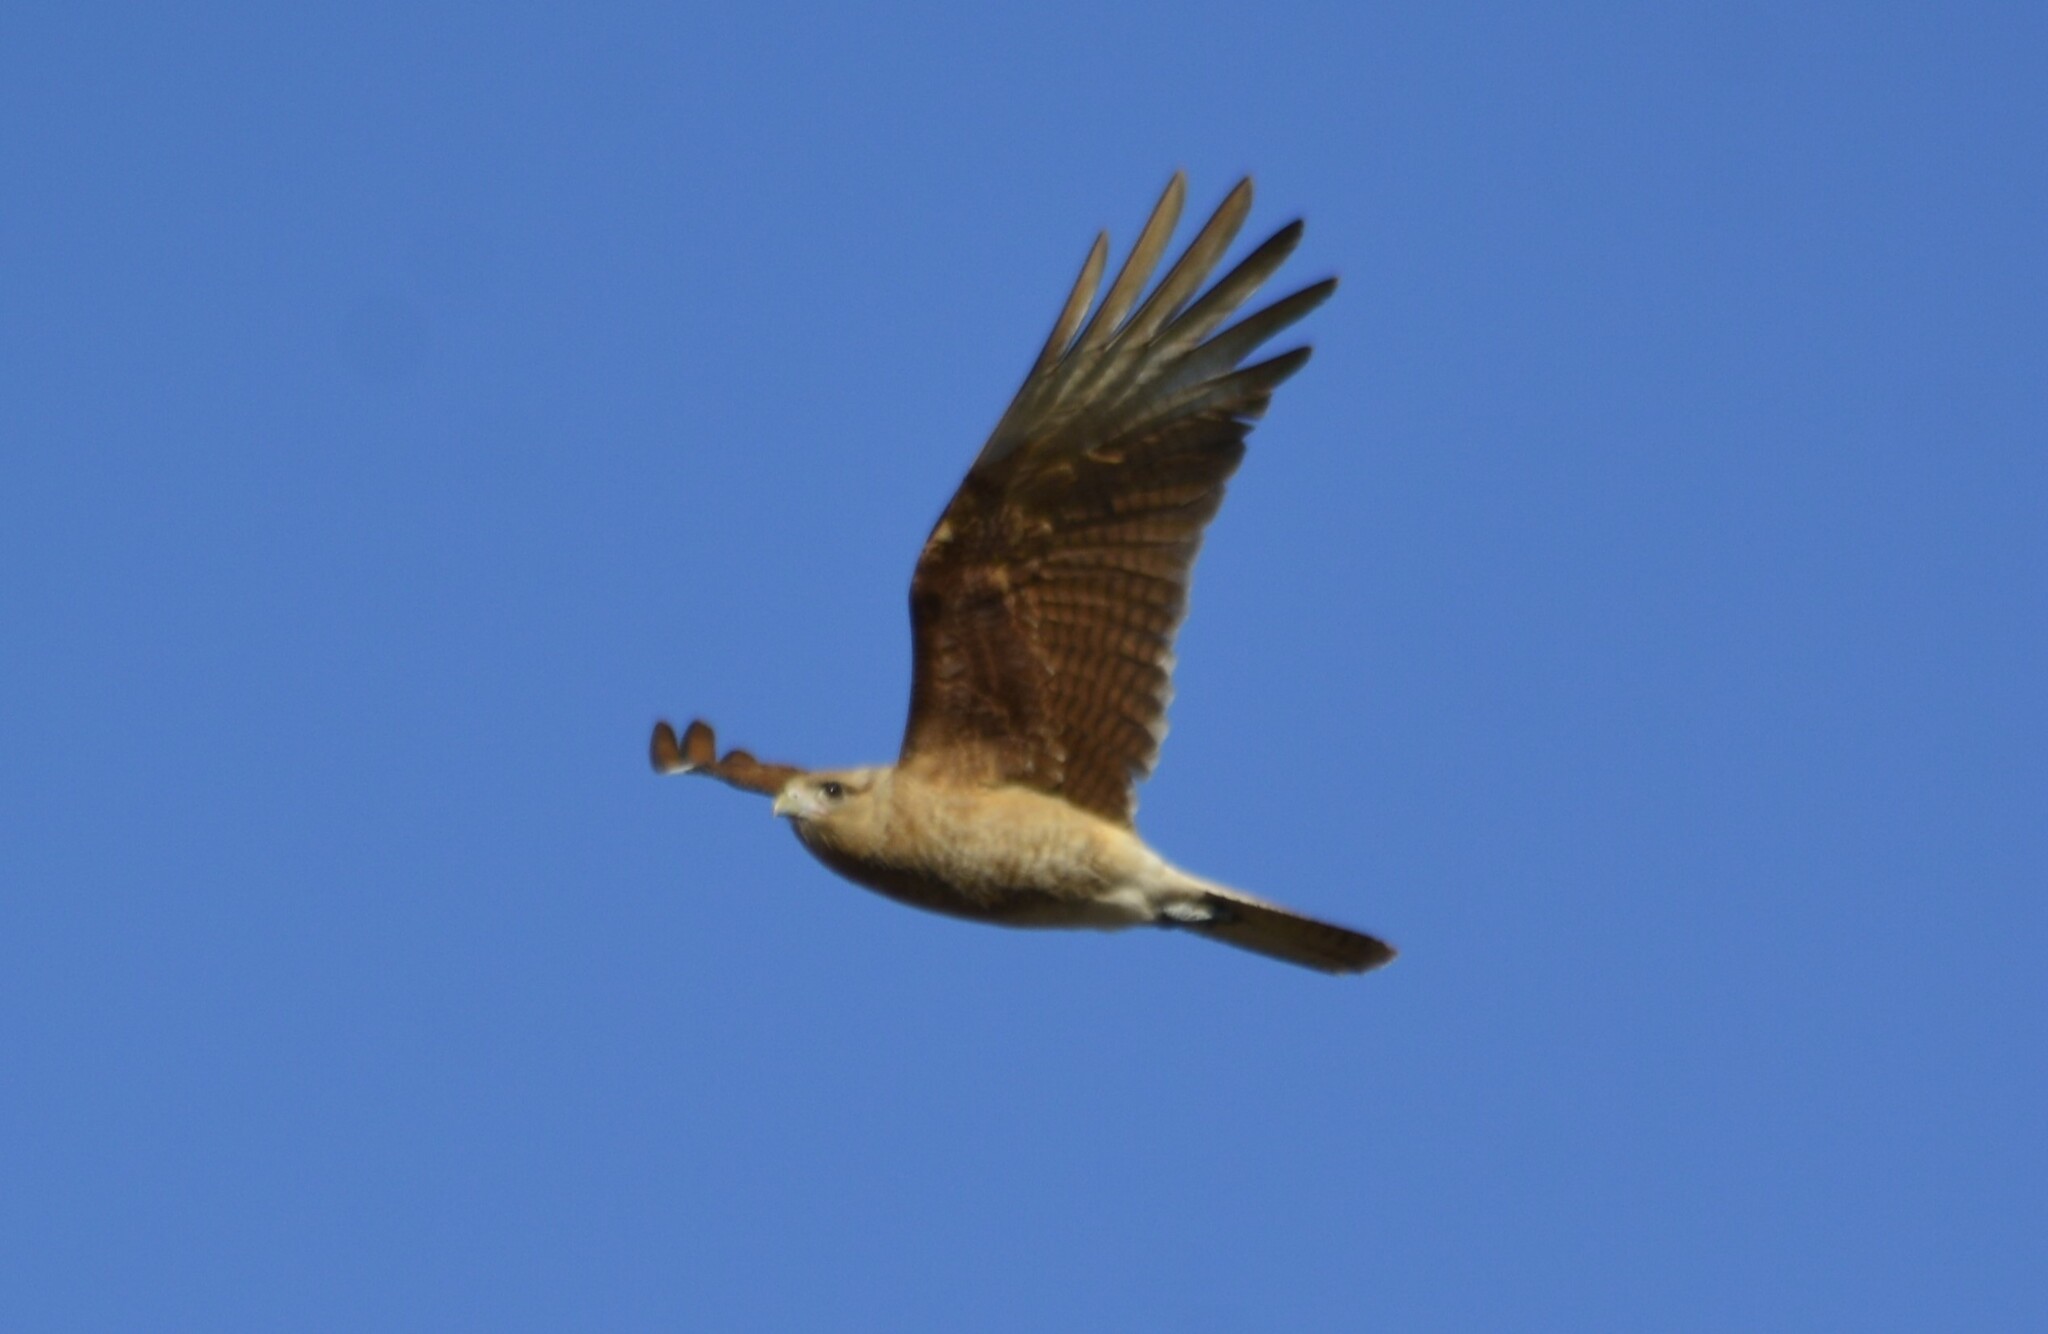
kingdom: Animalia
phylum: Chordata
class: Aves
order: Falconiformes
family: Falconidae
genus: Daptrius
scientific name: Daptrius
